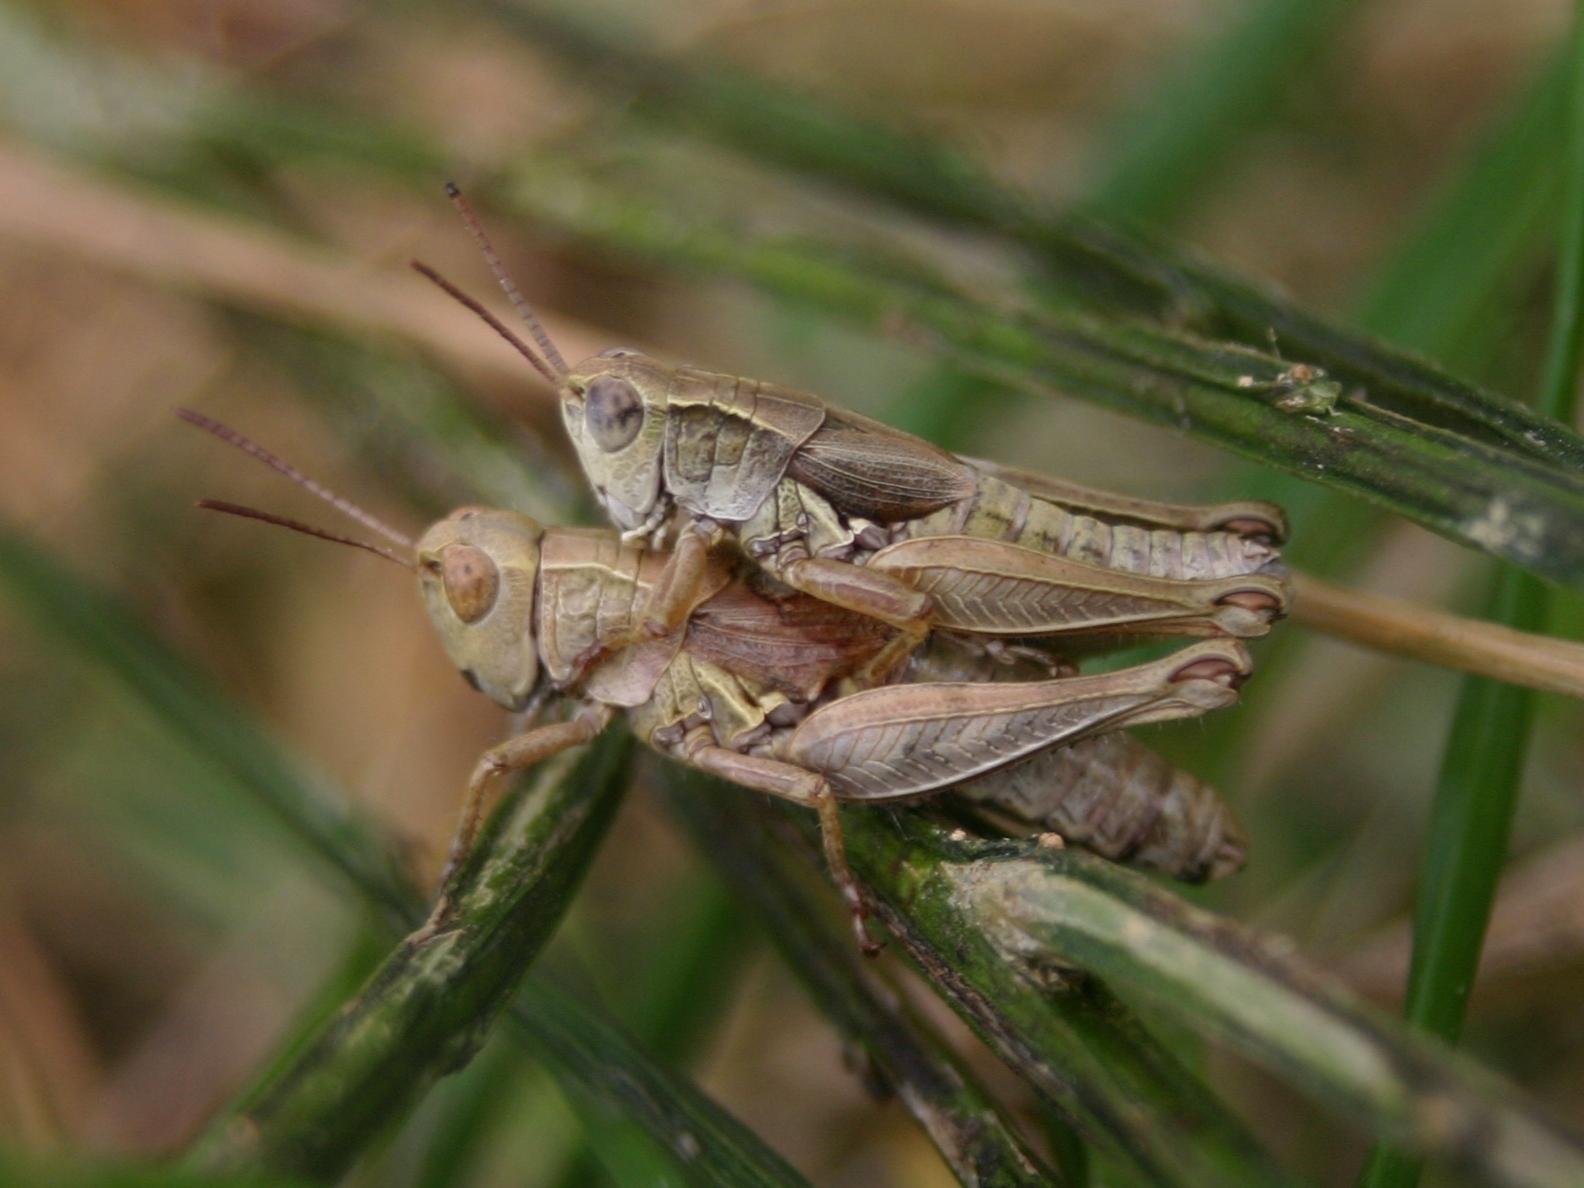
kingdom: Animalia
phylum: Arthropoda
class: Insecta
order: Orthoptera
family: Acrididae
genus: Phaulacridium
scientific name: Phaulacridium marginale
